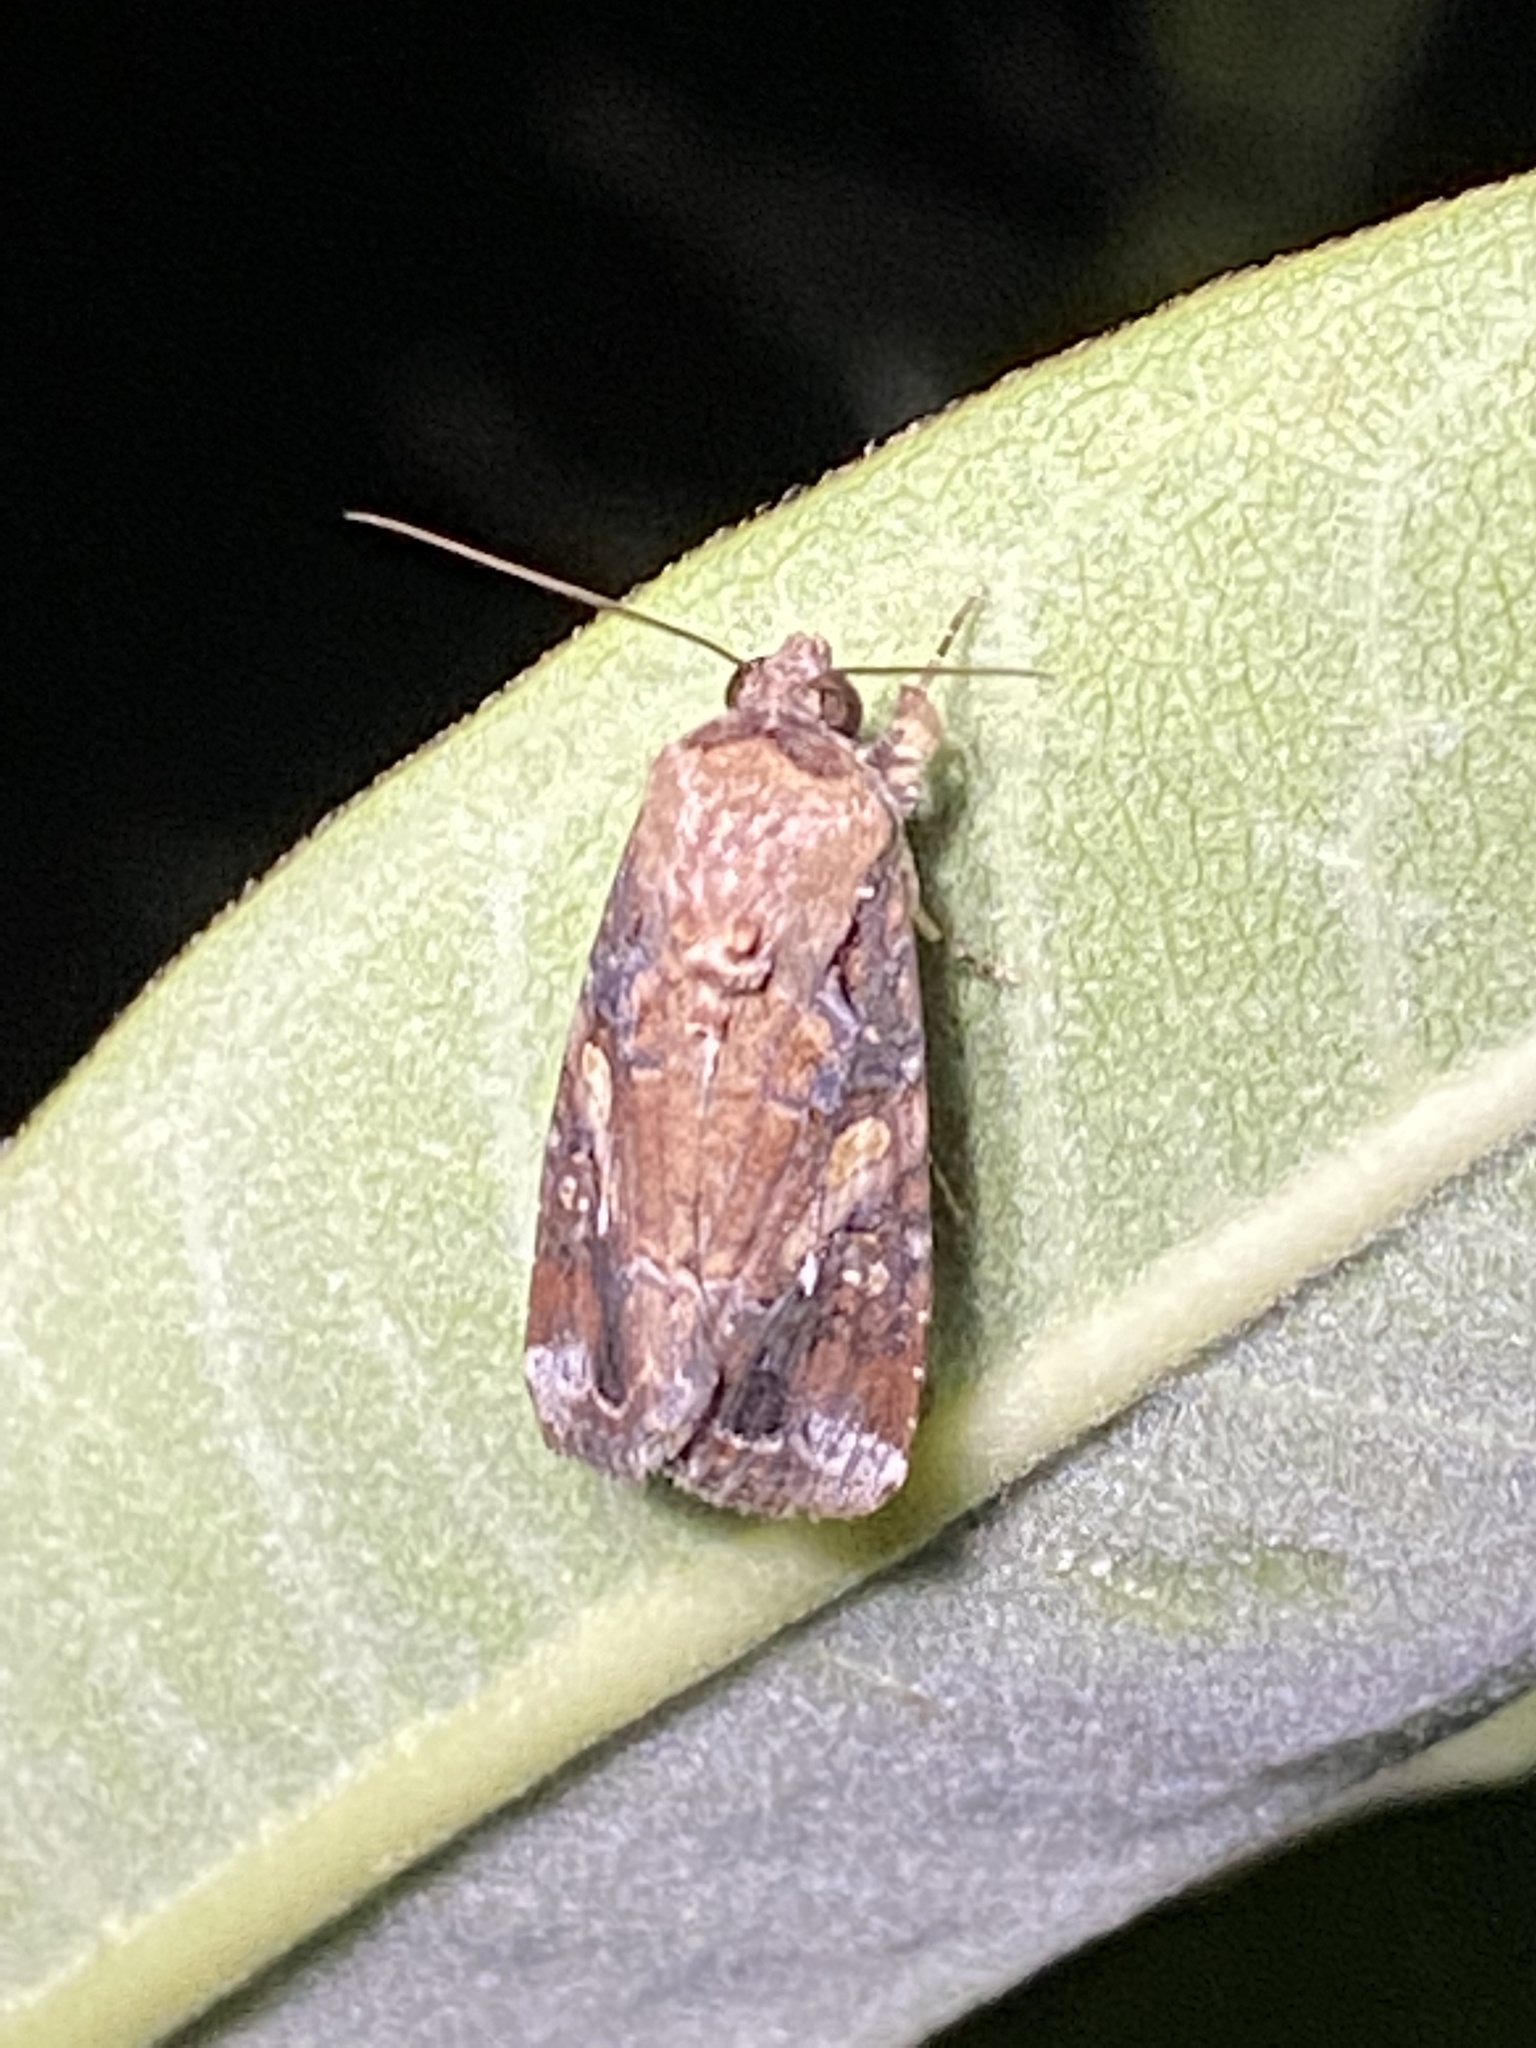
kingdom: Animalia
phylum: Arthropoda
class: Insecta
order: Lepidoptera
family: Noctuidae
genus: Spodoptera
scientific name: Spodoptera frugiperda
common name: Fall armyworm
